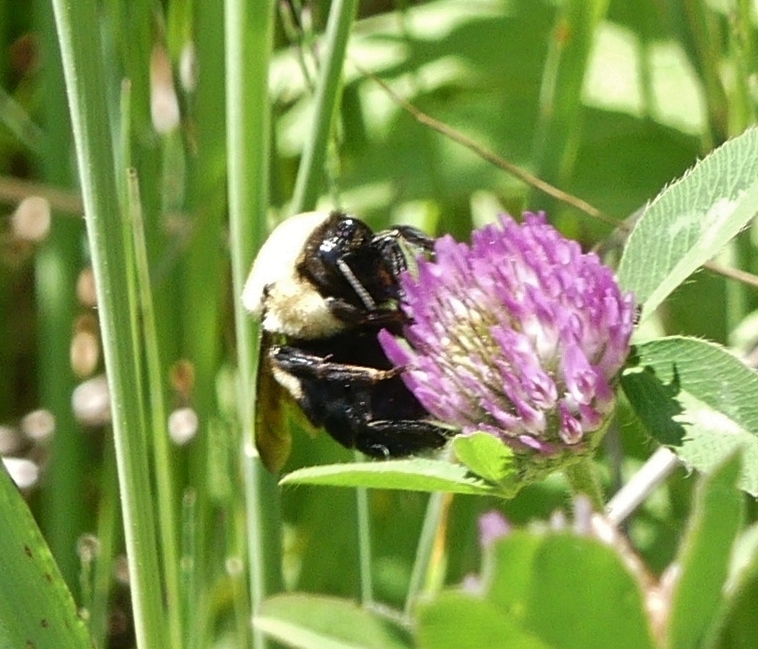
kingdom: Animalia
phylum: Arthropoda
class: Insecta
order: Hymenoptera
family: Apidae
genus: Bombus
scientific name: Bombus griseocollis
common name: Brown-belted bumble bee
